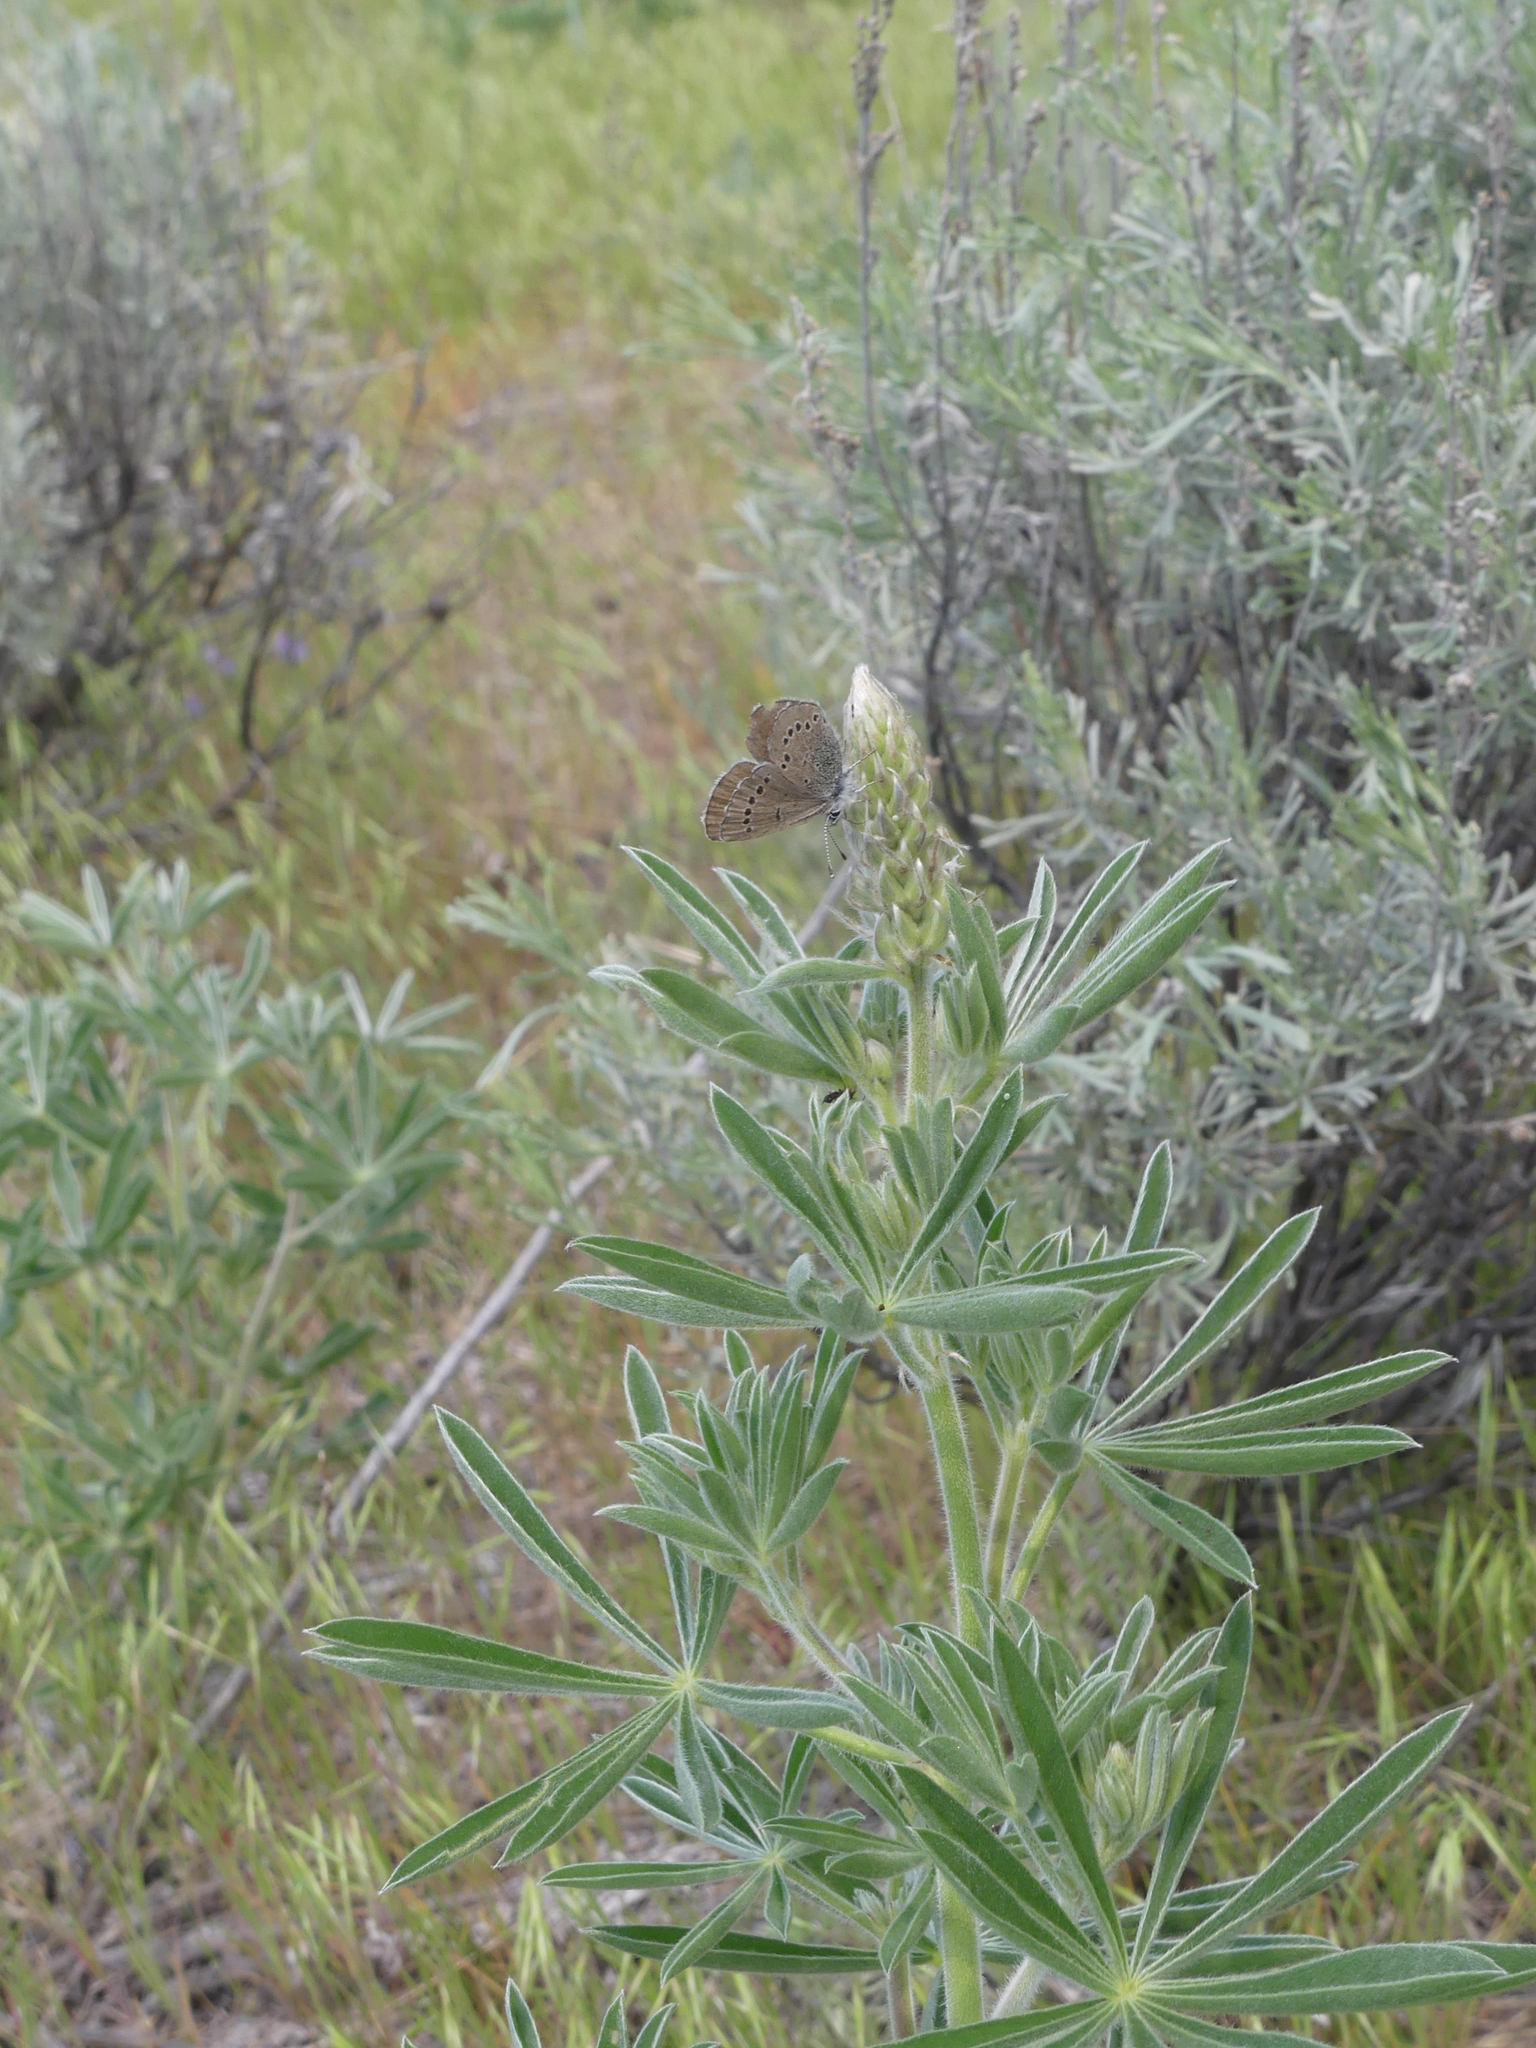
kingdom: Animalia
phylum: Arthropoda
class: Insecta
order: Lepidoptera
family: Lycaenidae
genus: Glaucopsyche
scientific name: Glaucopsyche lygdamus
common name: Silvery blue
